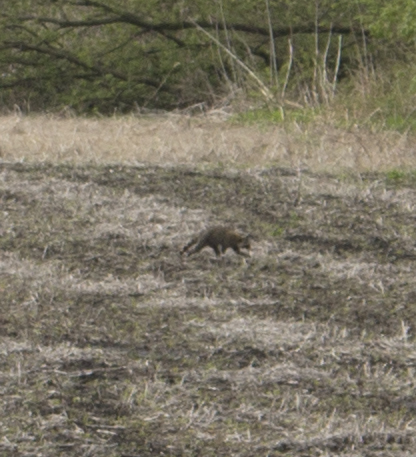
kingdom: Animalia
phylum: Chordata
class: Mammalia
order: Carnivora
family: Procyonidae
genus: Procyon
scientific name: Procyon lotor
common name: Raccoon
